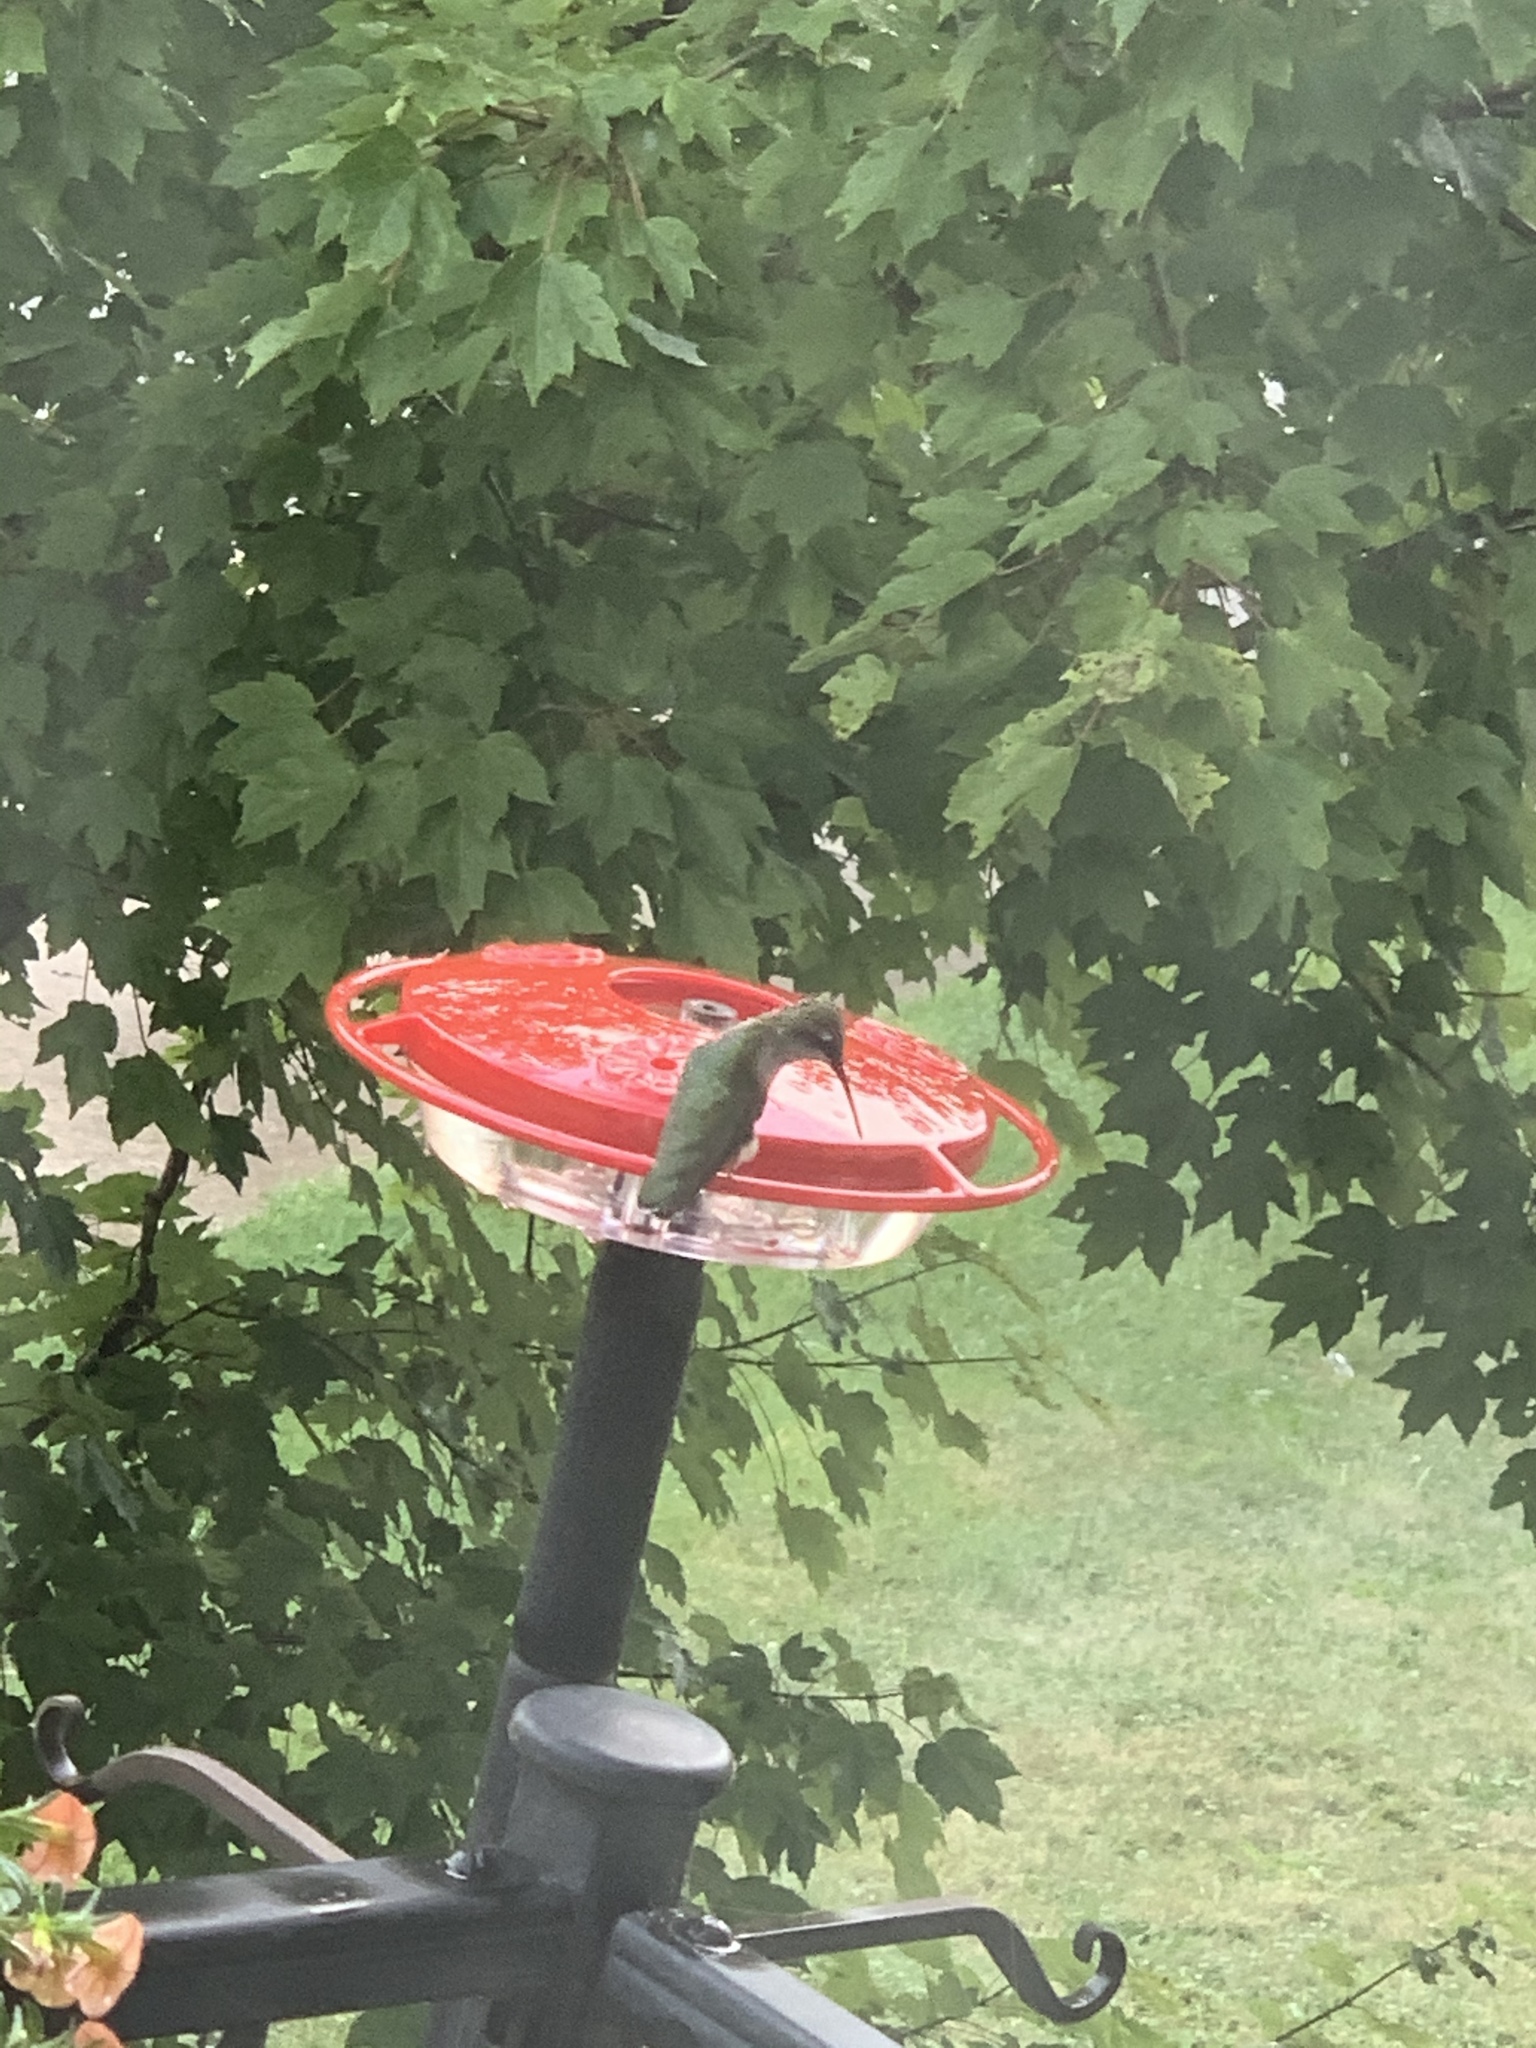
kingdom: Animalia
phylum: Chordata
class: Aves
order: Apodiformes
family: Trochilidae
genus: Archilochus
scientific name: Archilochus colubris
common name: Ruby-throated hummingbird
